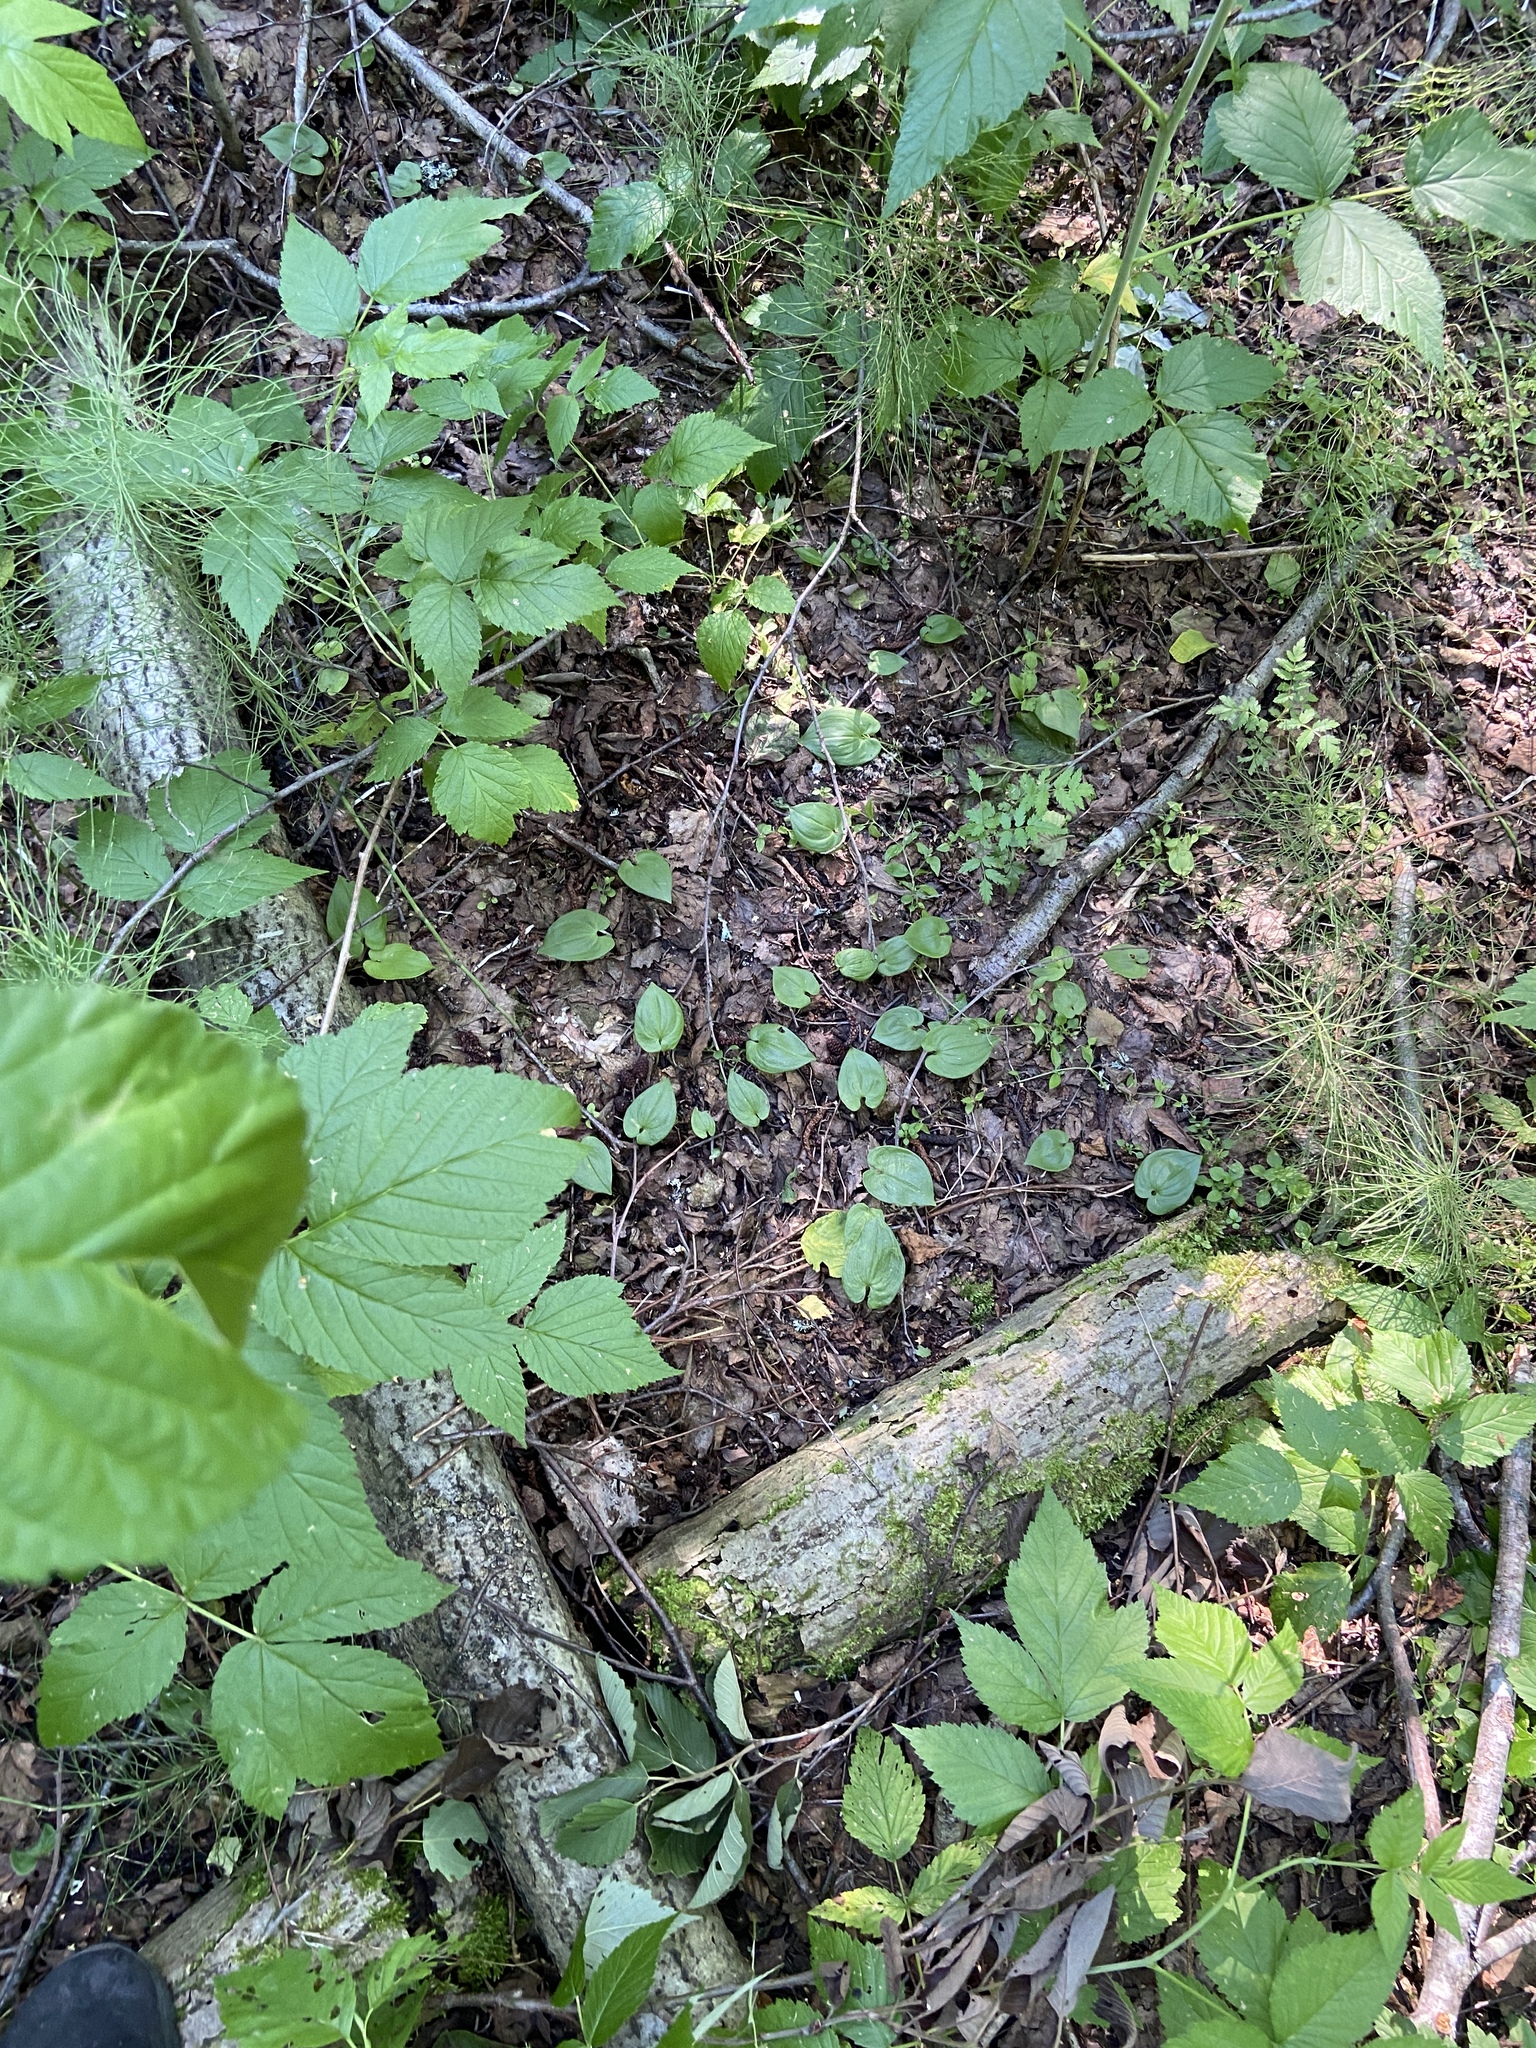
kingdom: Plantae
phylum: Tracheophyta
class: Magnoliopsida
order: Rosales
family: Rosaceae
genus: Rubus
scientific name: Rubus idaeus
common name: Raspberry
